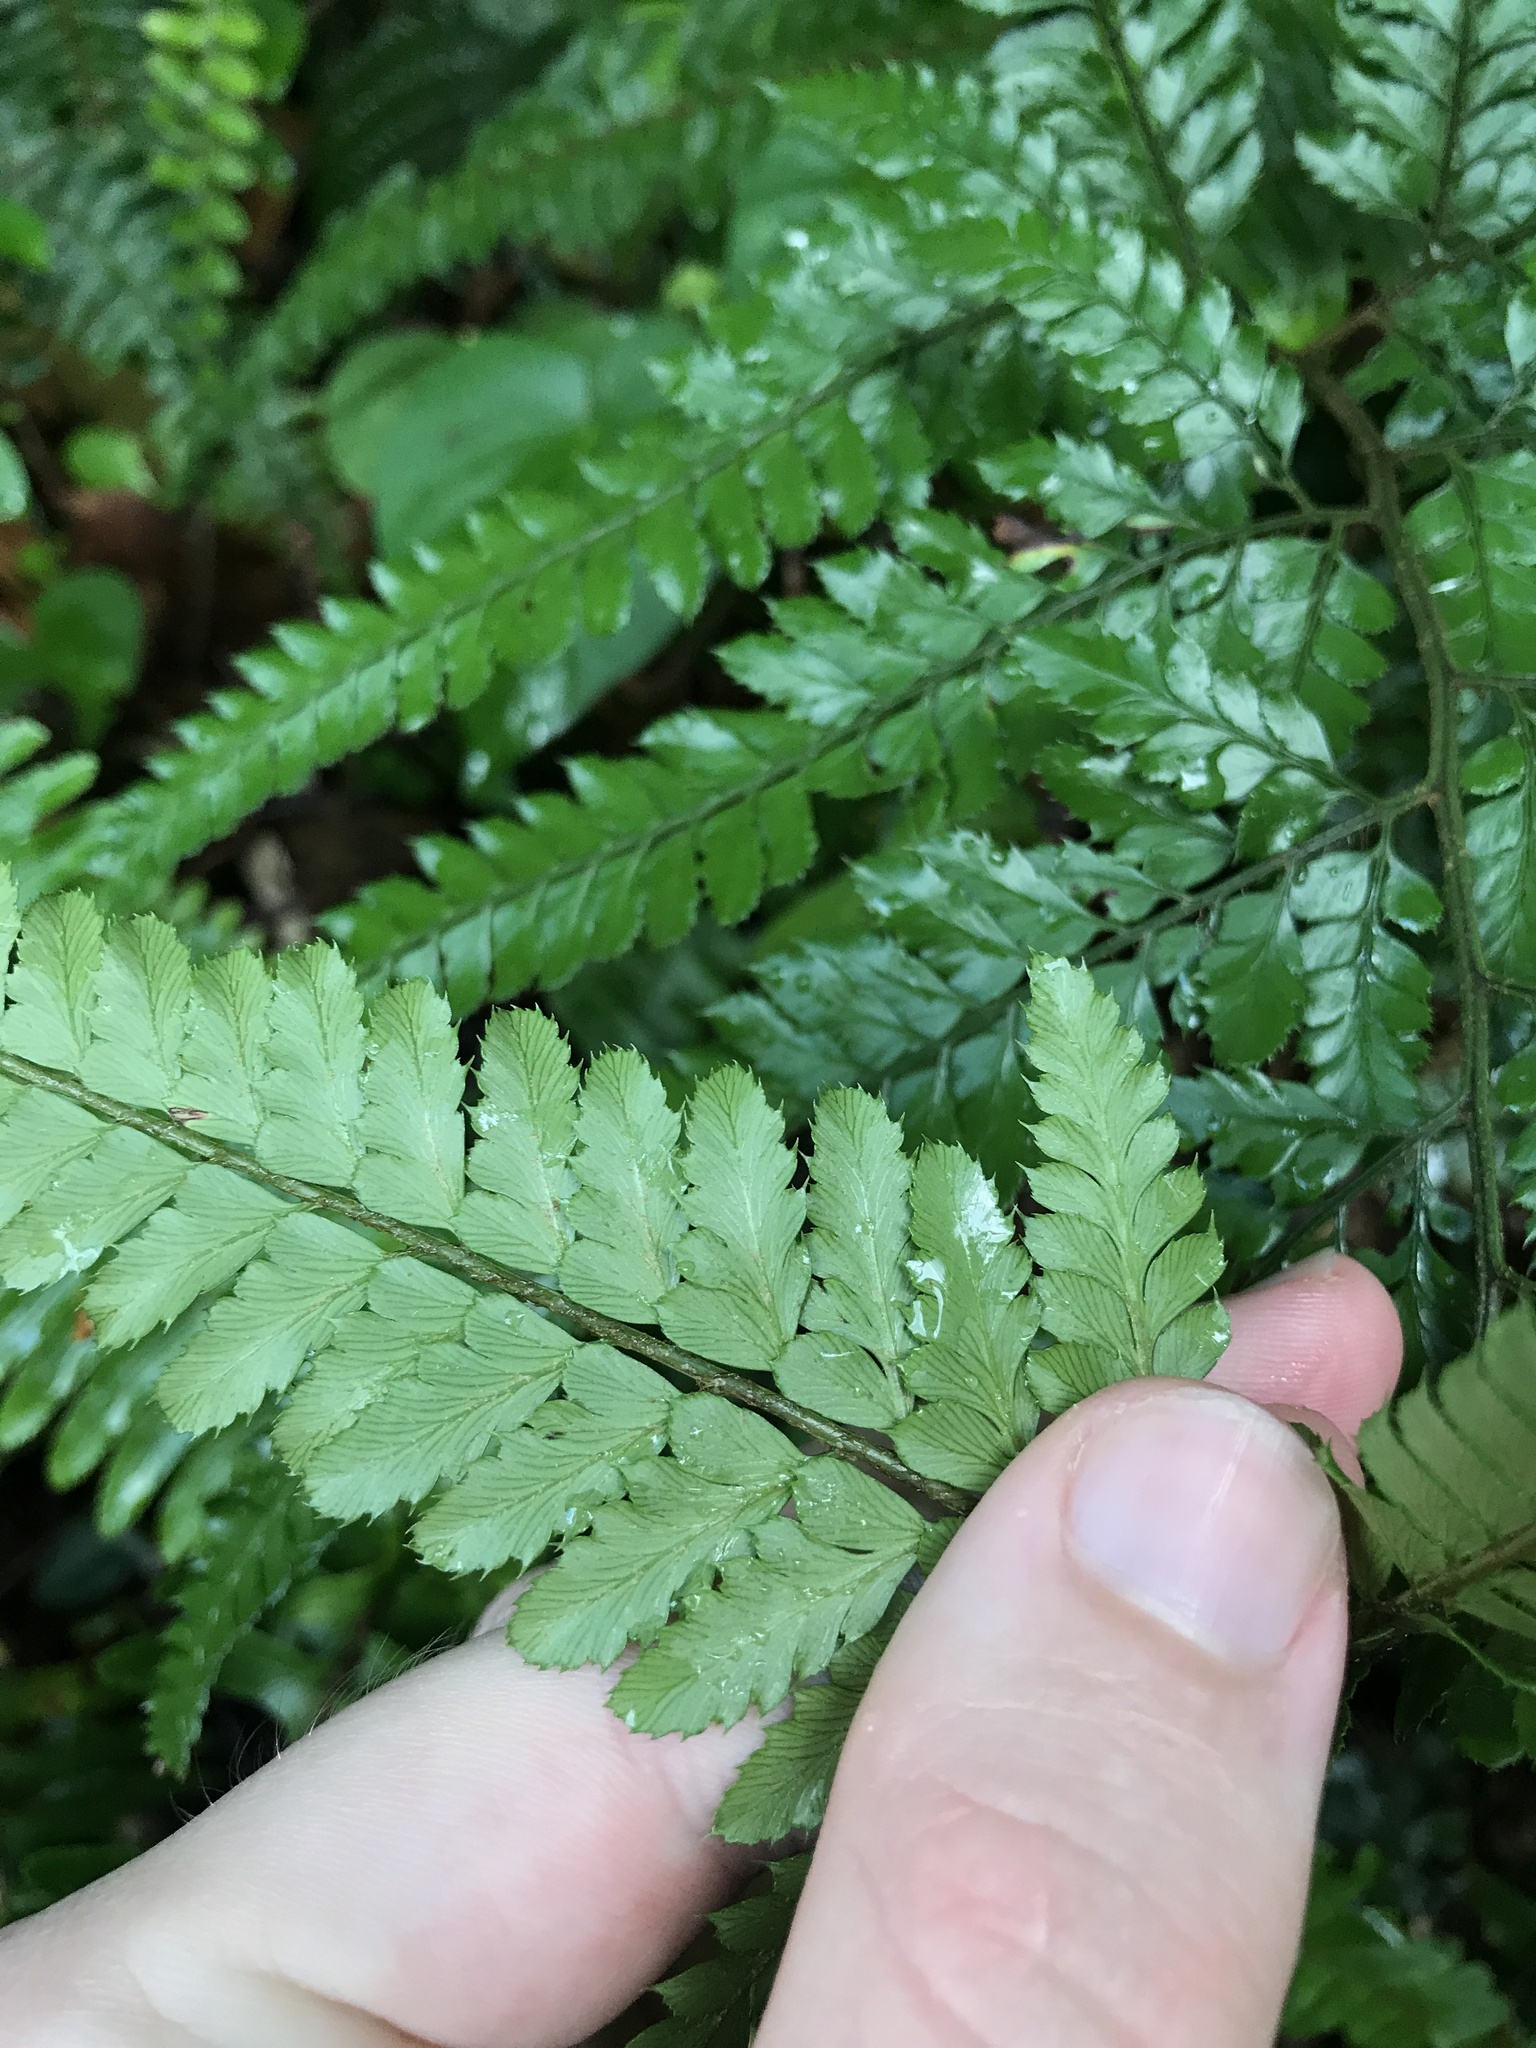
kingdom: Plantae
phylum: Tracheophyta
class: Polypodiopsida
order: Polypodiales
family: Dryopteridaceae
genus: Arachniodes
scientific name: Arachniodes aristata
